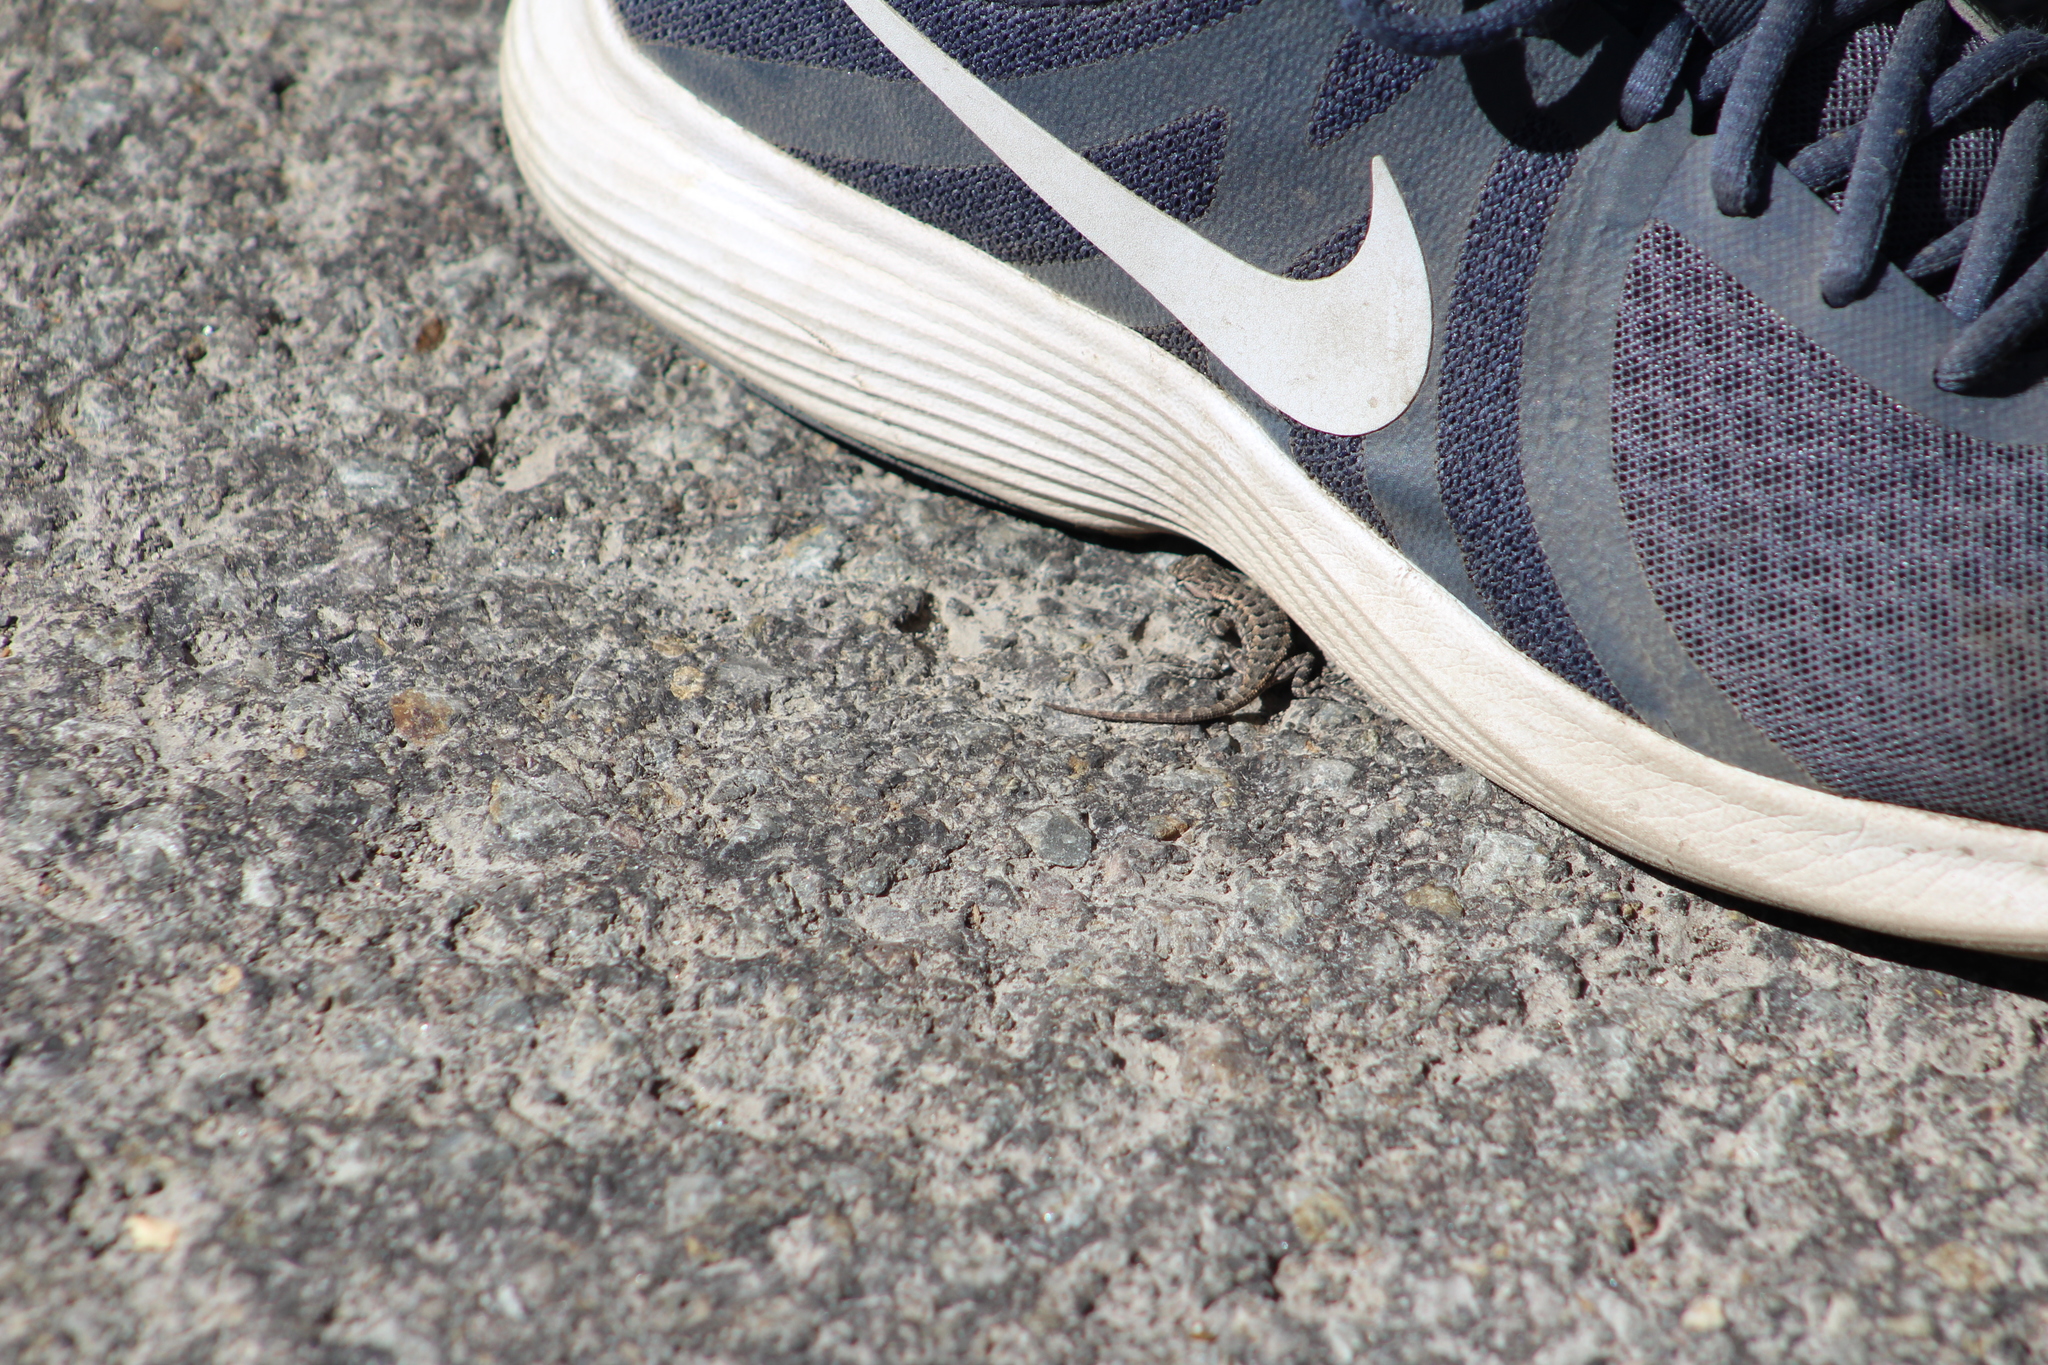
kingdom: Animalia
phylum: Chordata
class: Squamata
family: Phrynosomatidae
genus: Sceloporus
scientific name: Sceloporus occidentalis
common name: Western fence lizard
